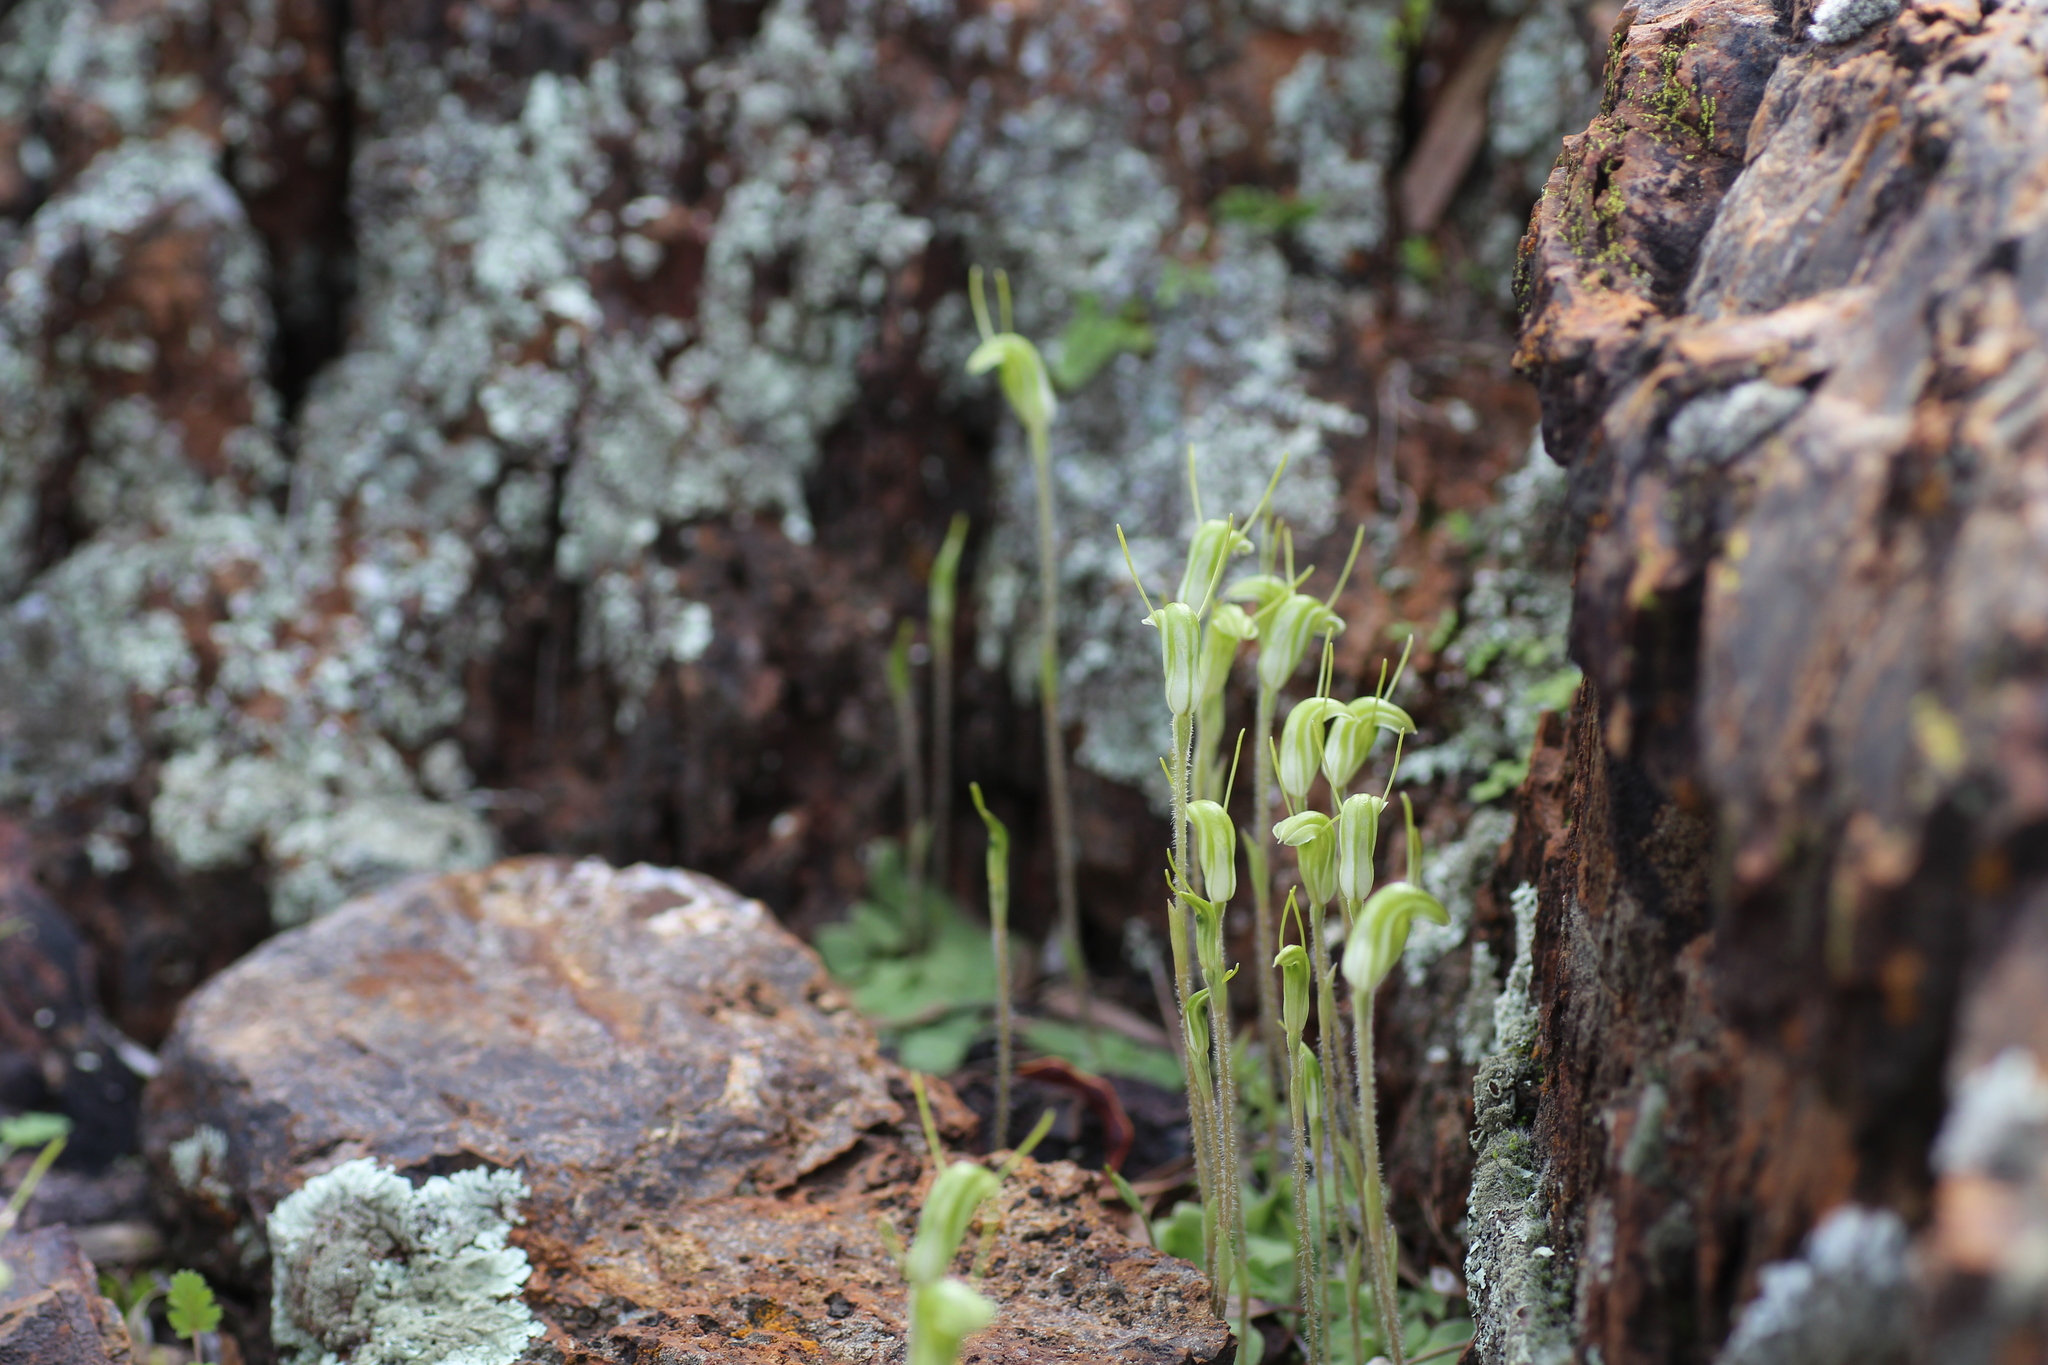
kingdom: Plantae
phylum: Tracheophyta
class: Liliopsida
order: Asparagales
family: Orchidaceae
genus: Pterostylis
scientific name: Pterostylis setulosa
